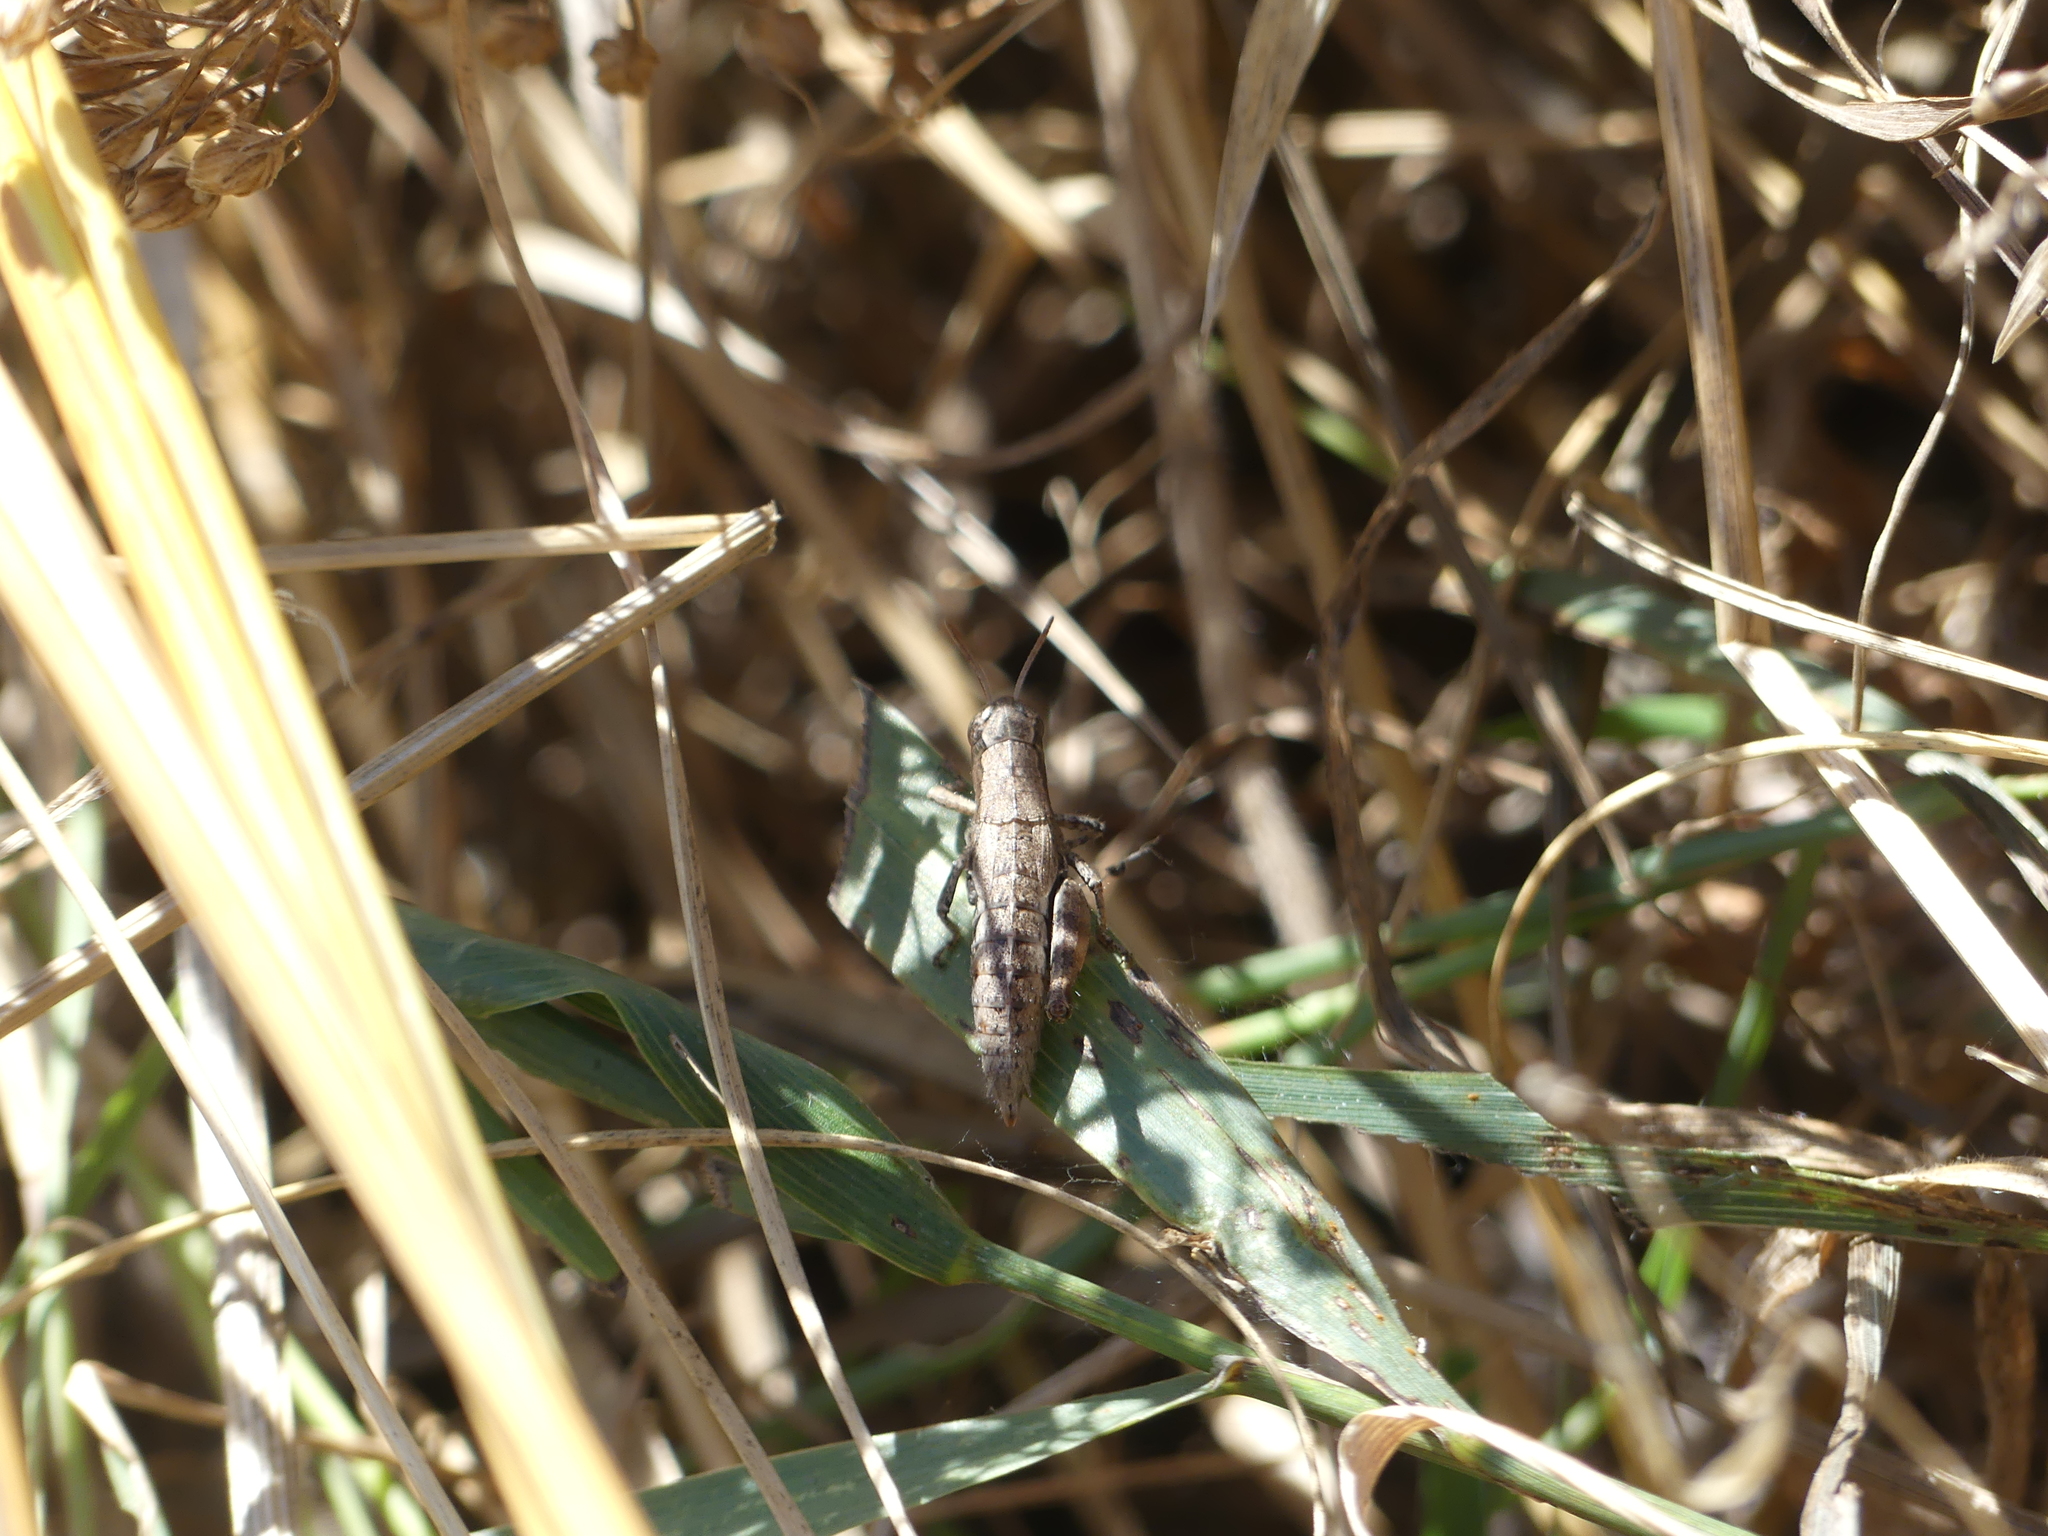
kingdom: Animalia
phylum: Arthropoda
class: Insecta
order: Orthoptera
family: Acrididae
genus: Pezotettix
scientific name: Pezotettix giornae
